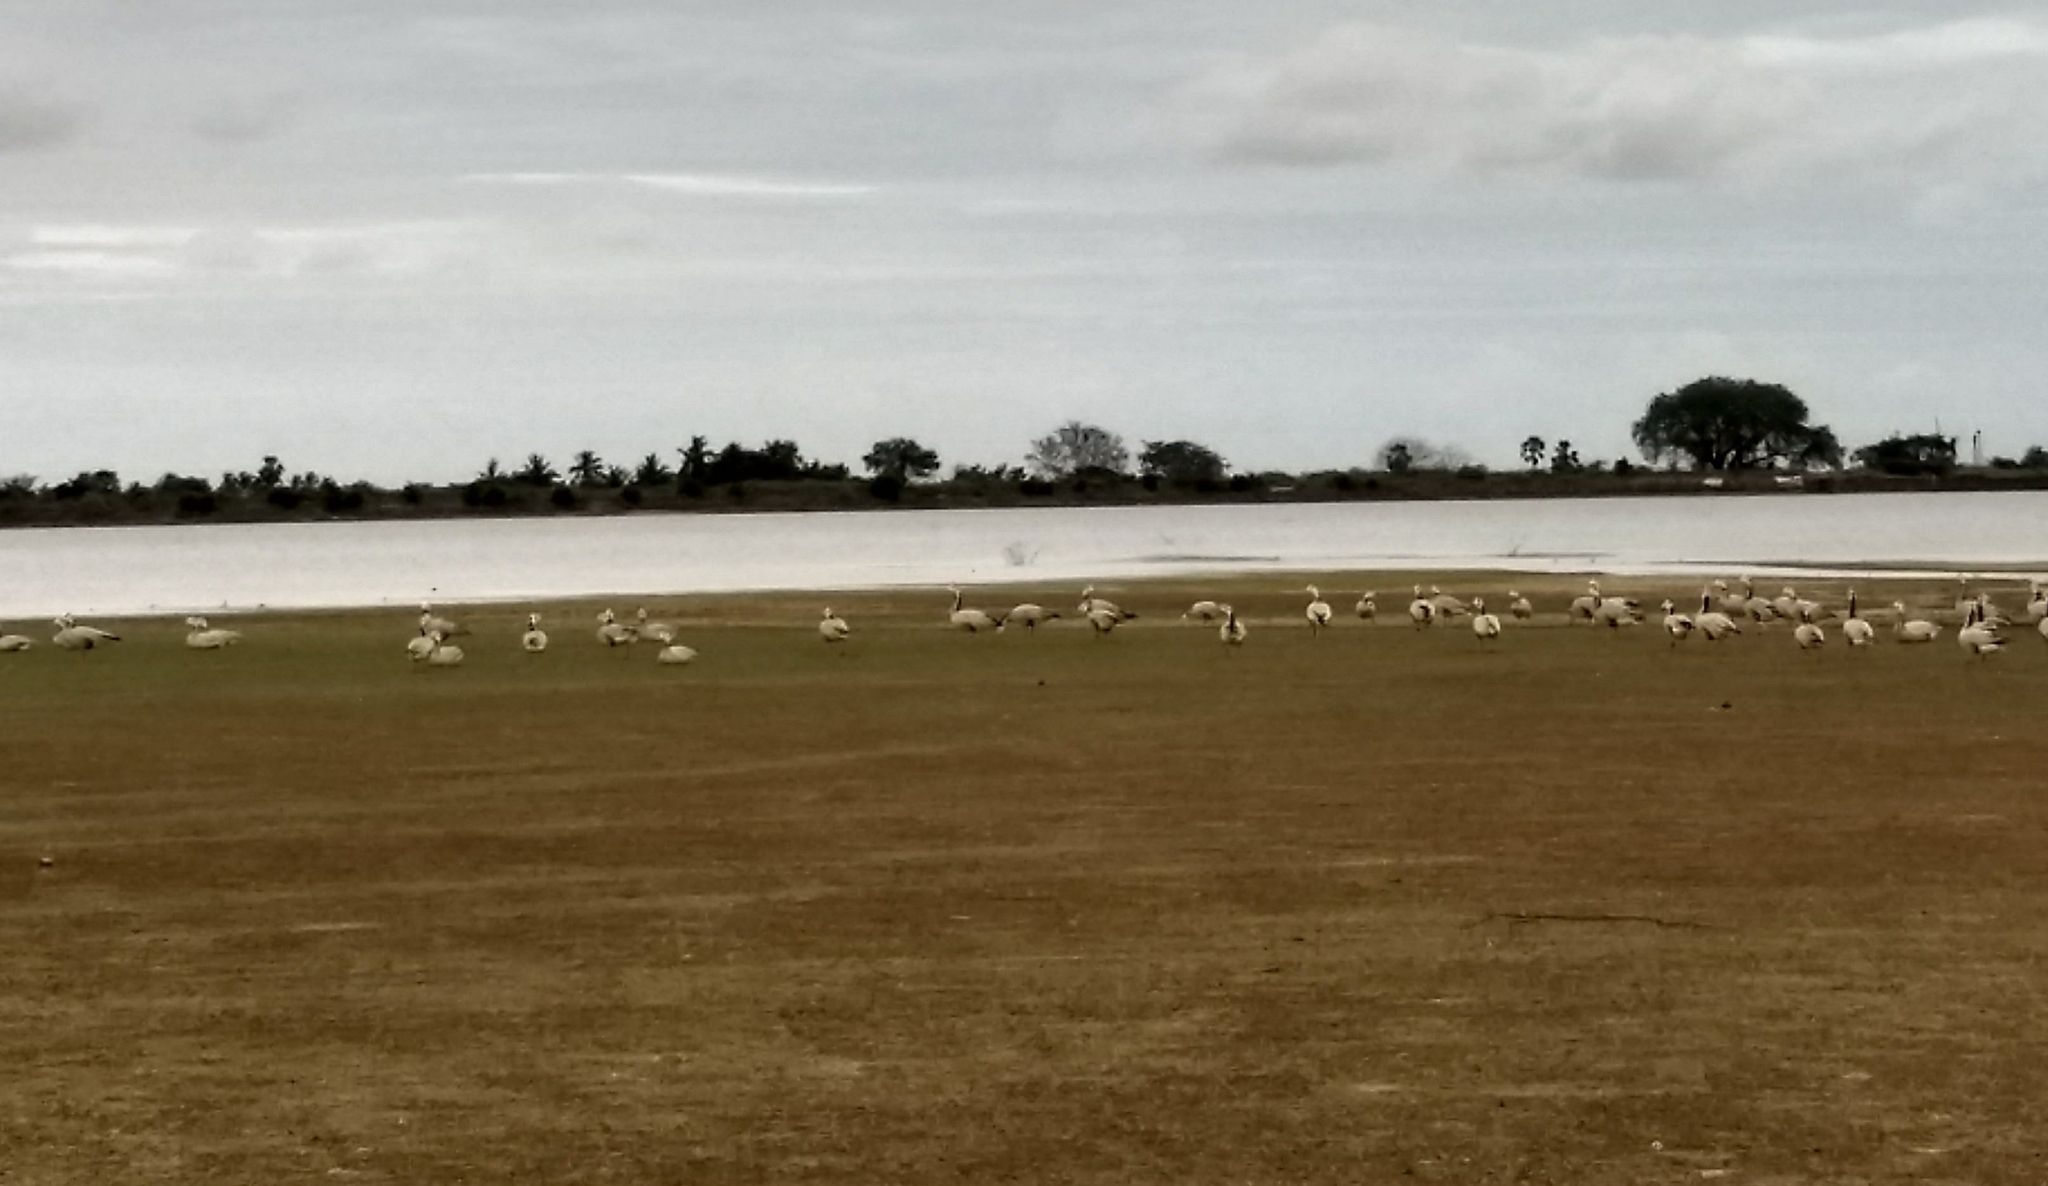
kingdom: Animalia
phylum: Chordata
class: Aves
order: Anseriformes
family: Anatidae
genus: Anser
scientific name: Anser indicus
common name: Bar-headed goose
